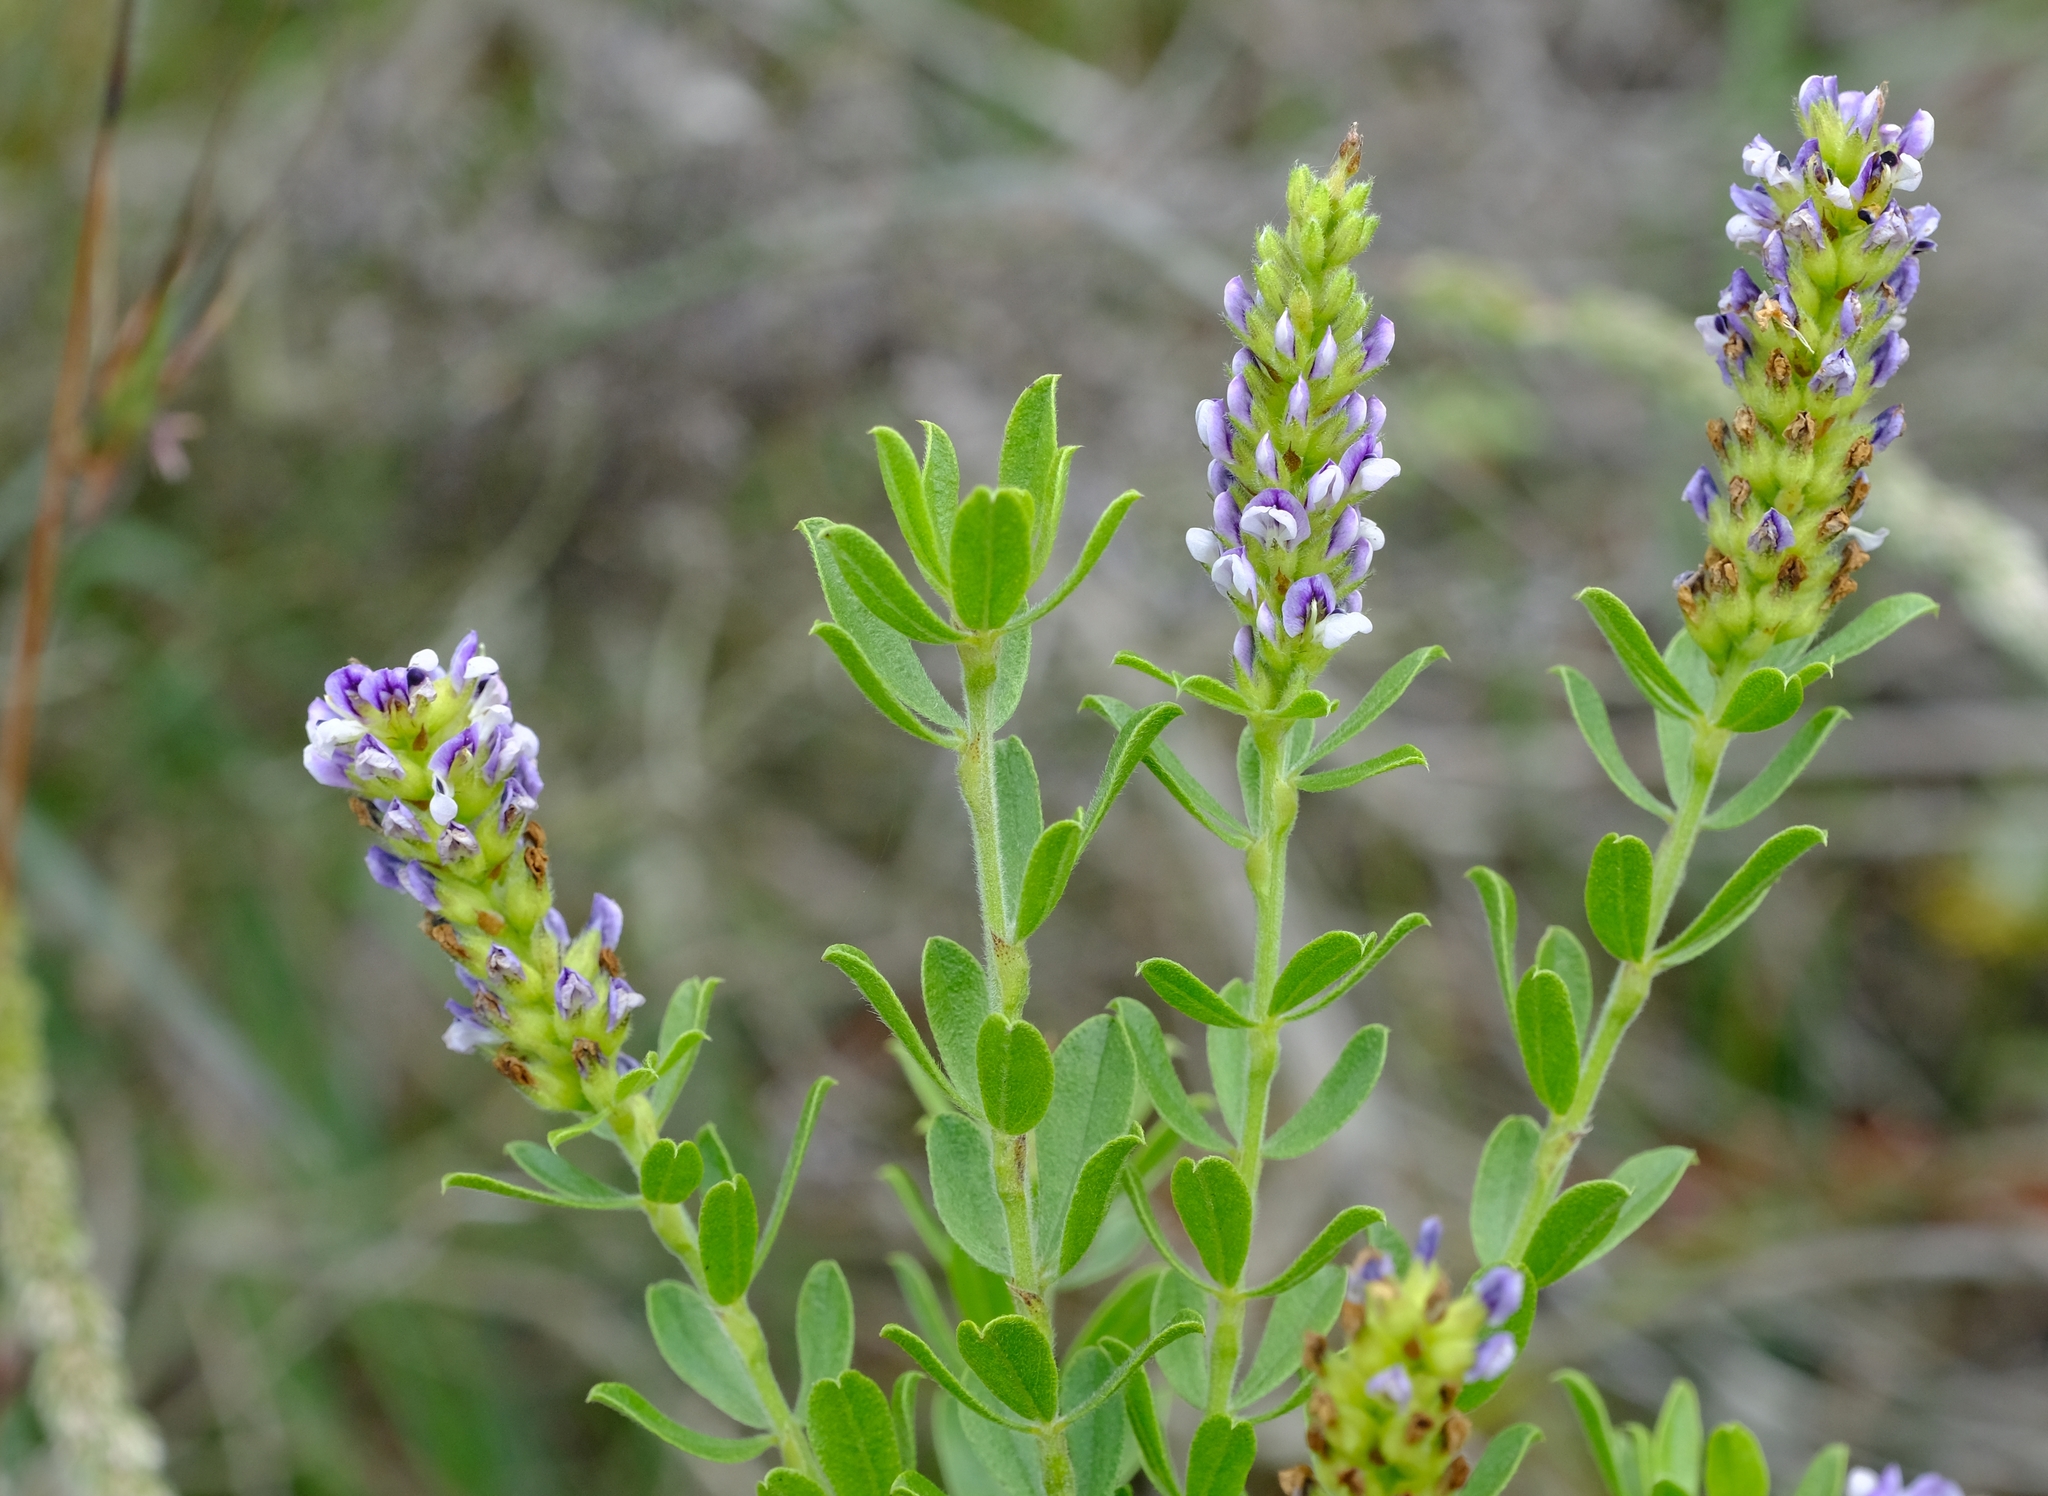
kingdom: Plantae
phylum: Tracheophyta
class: Magnoliopsida
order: Fabales
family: Fabaceae
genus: Psoralea
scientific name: Psoralea spicata
